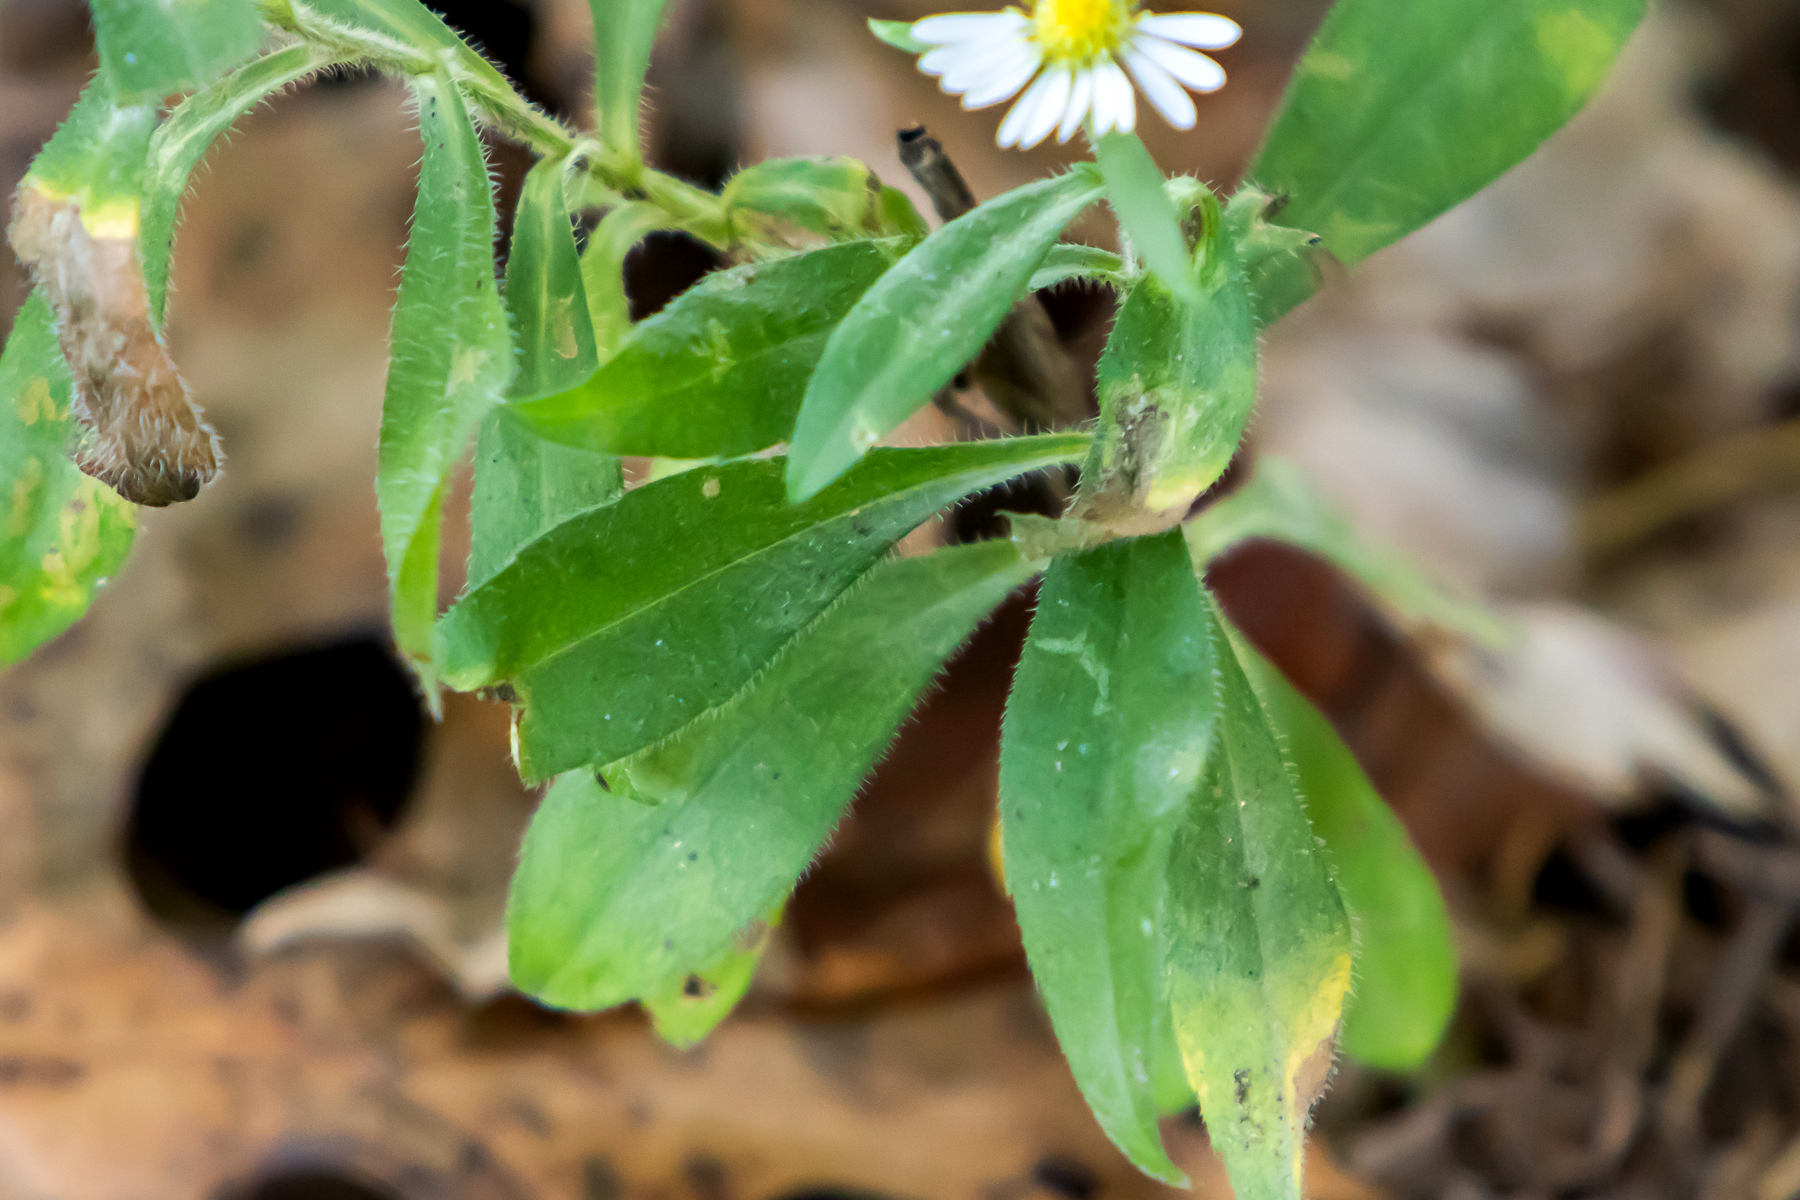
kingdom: Plantae
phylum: Tracheophyta
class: Magnoliopsida
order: Asterales
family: Asteraceae
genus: Symphyotrichum
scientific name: Symphyotrichum ontarionis
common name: Bottomland aster
